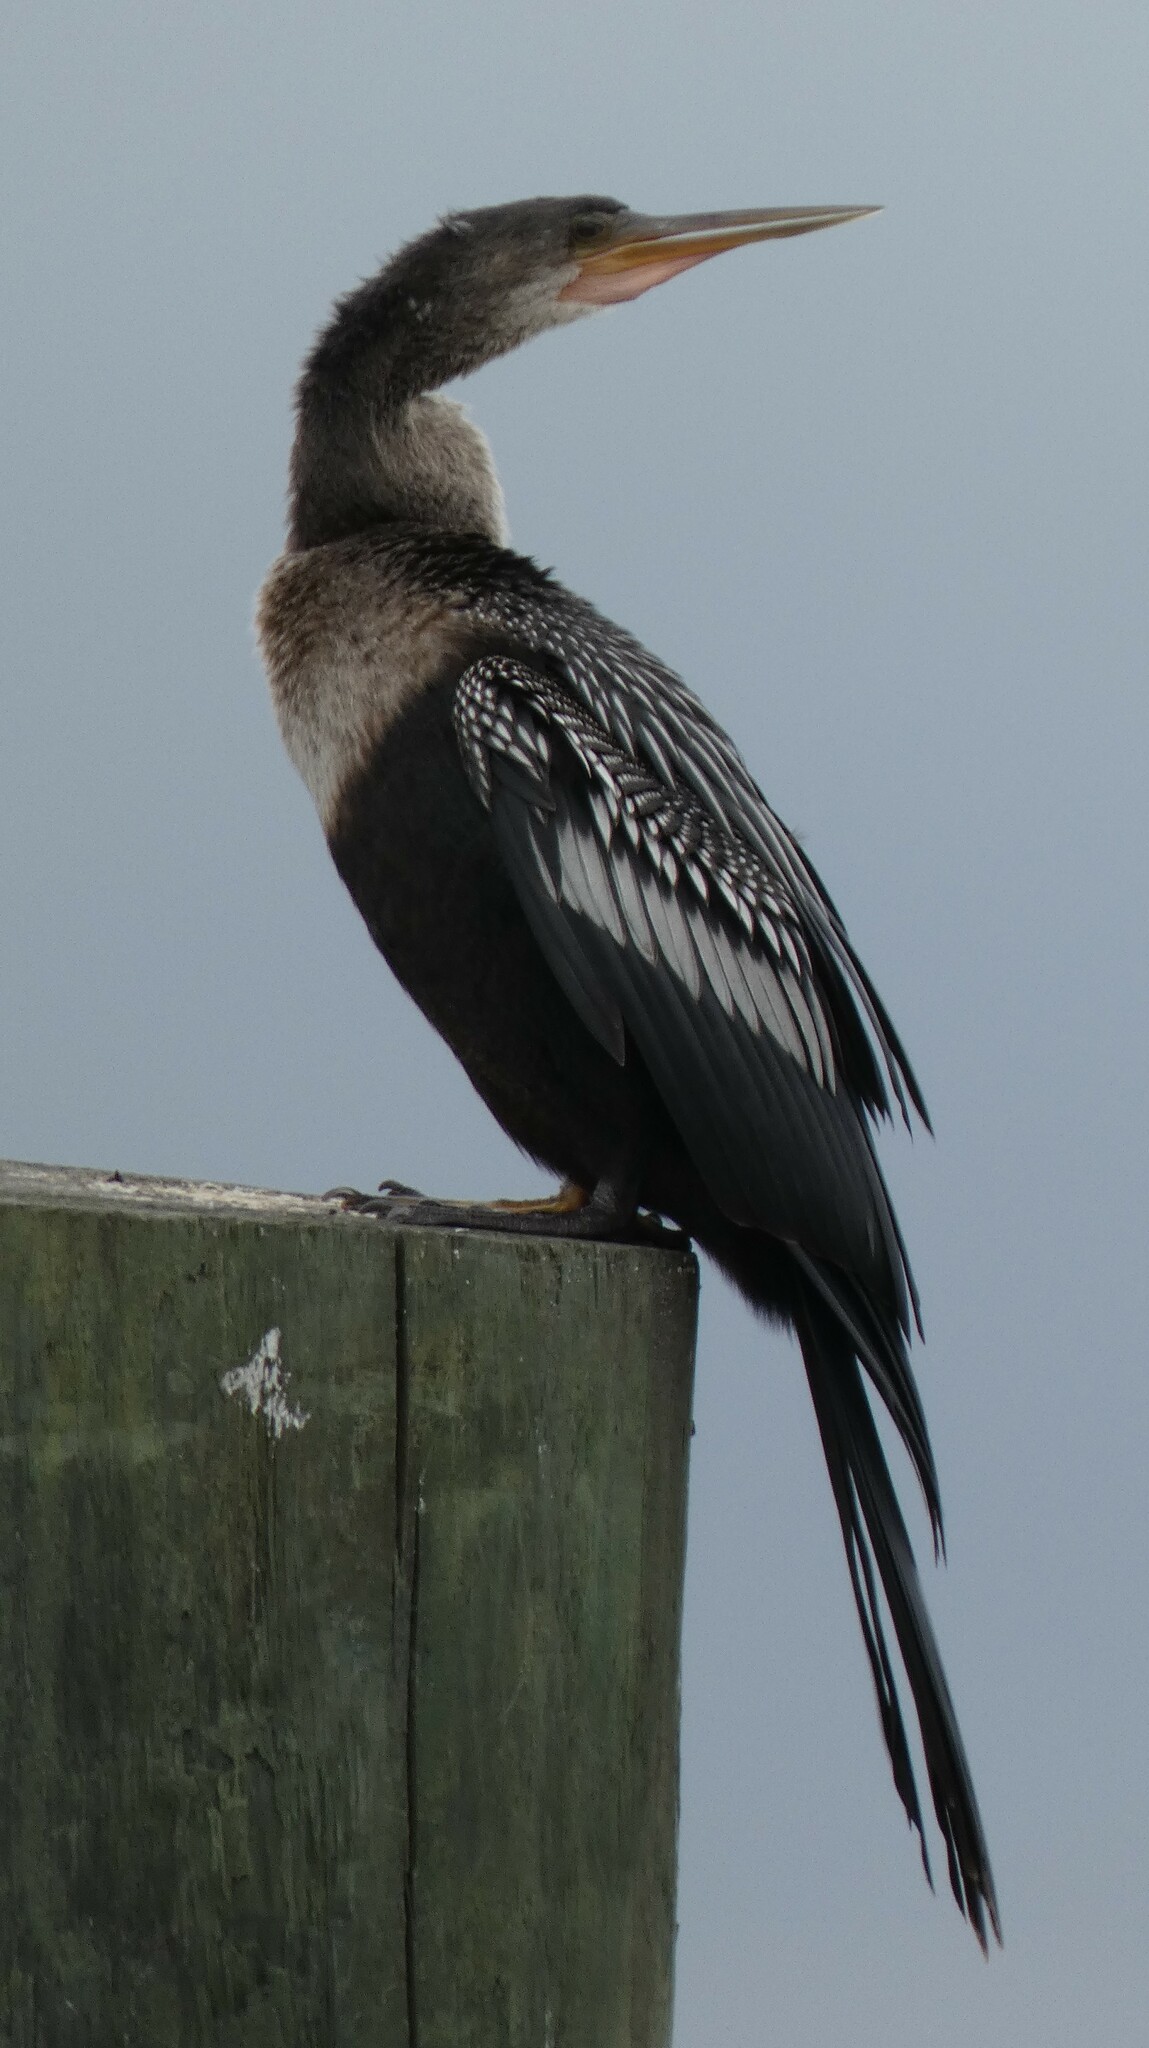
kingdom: Animalia
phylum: Chordata
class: Aves
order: Suliformes
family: Anhingidae
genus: Anhinga
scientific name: Anhinga anhinga
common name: Anhinga
